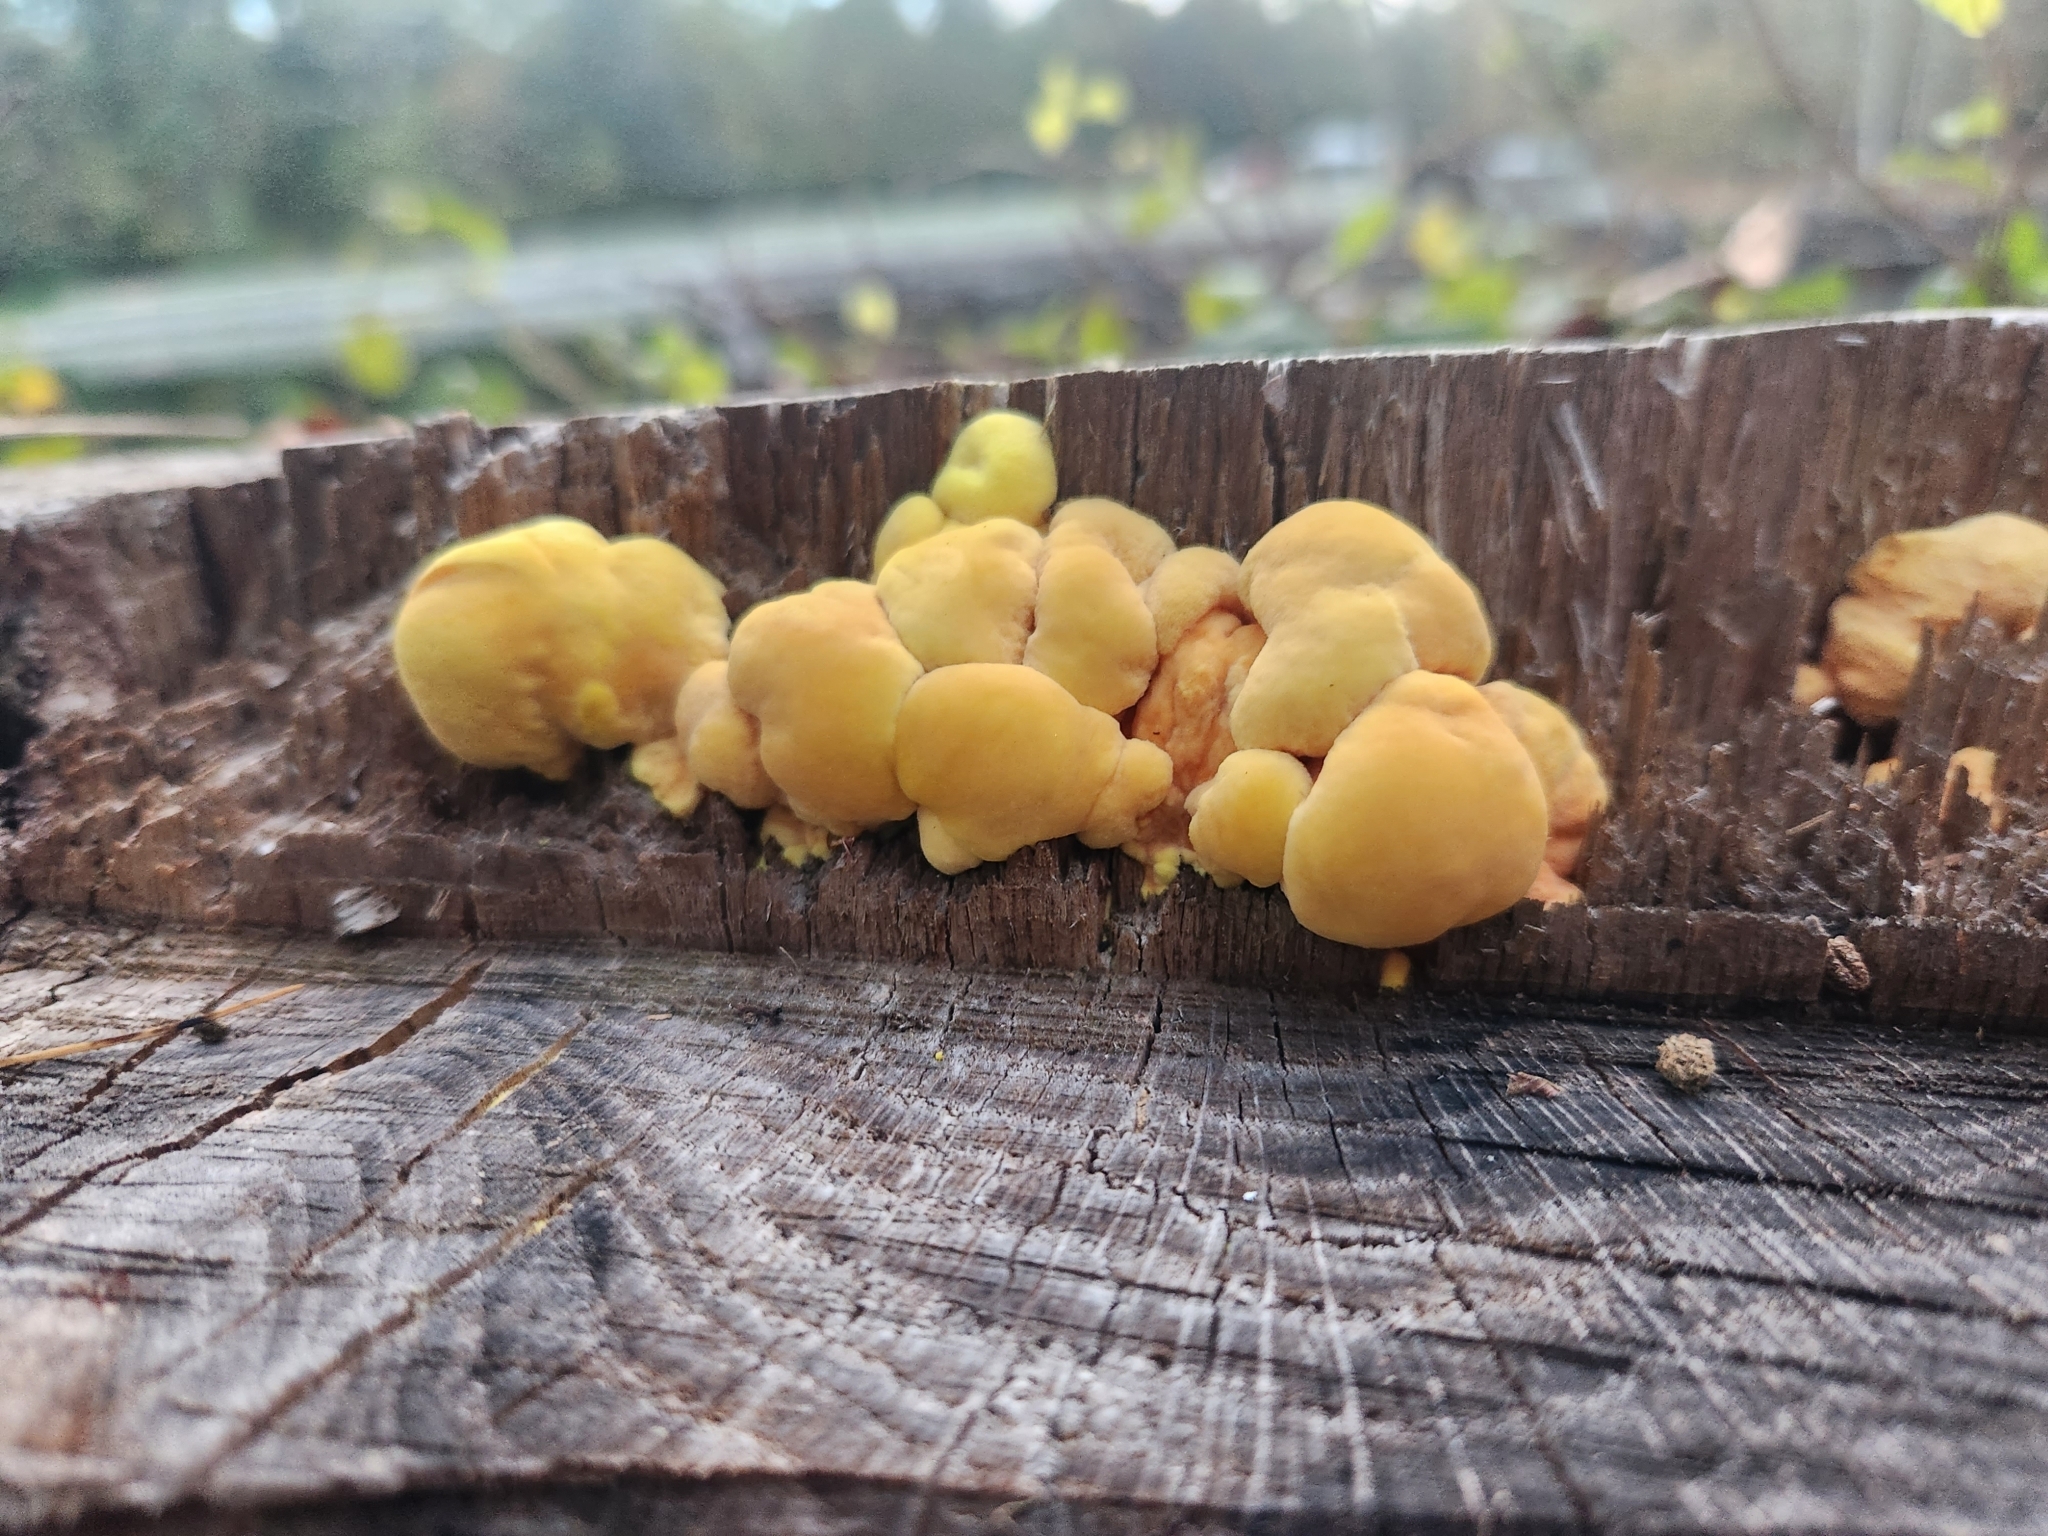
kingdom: Fungi
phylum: Basidiomycota
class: Agaricomycetes
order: Polyporales
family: Laetiporaceae
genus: Laetiporus
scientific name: Laetiporus sulphureus
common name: Chicken of the woods
